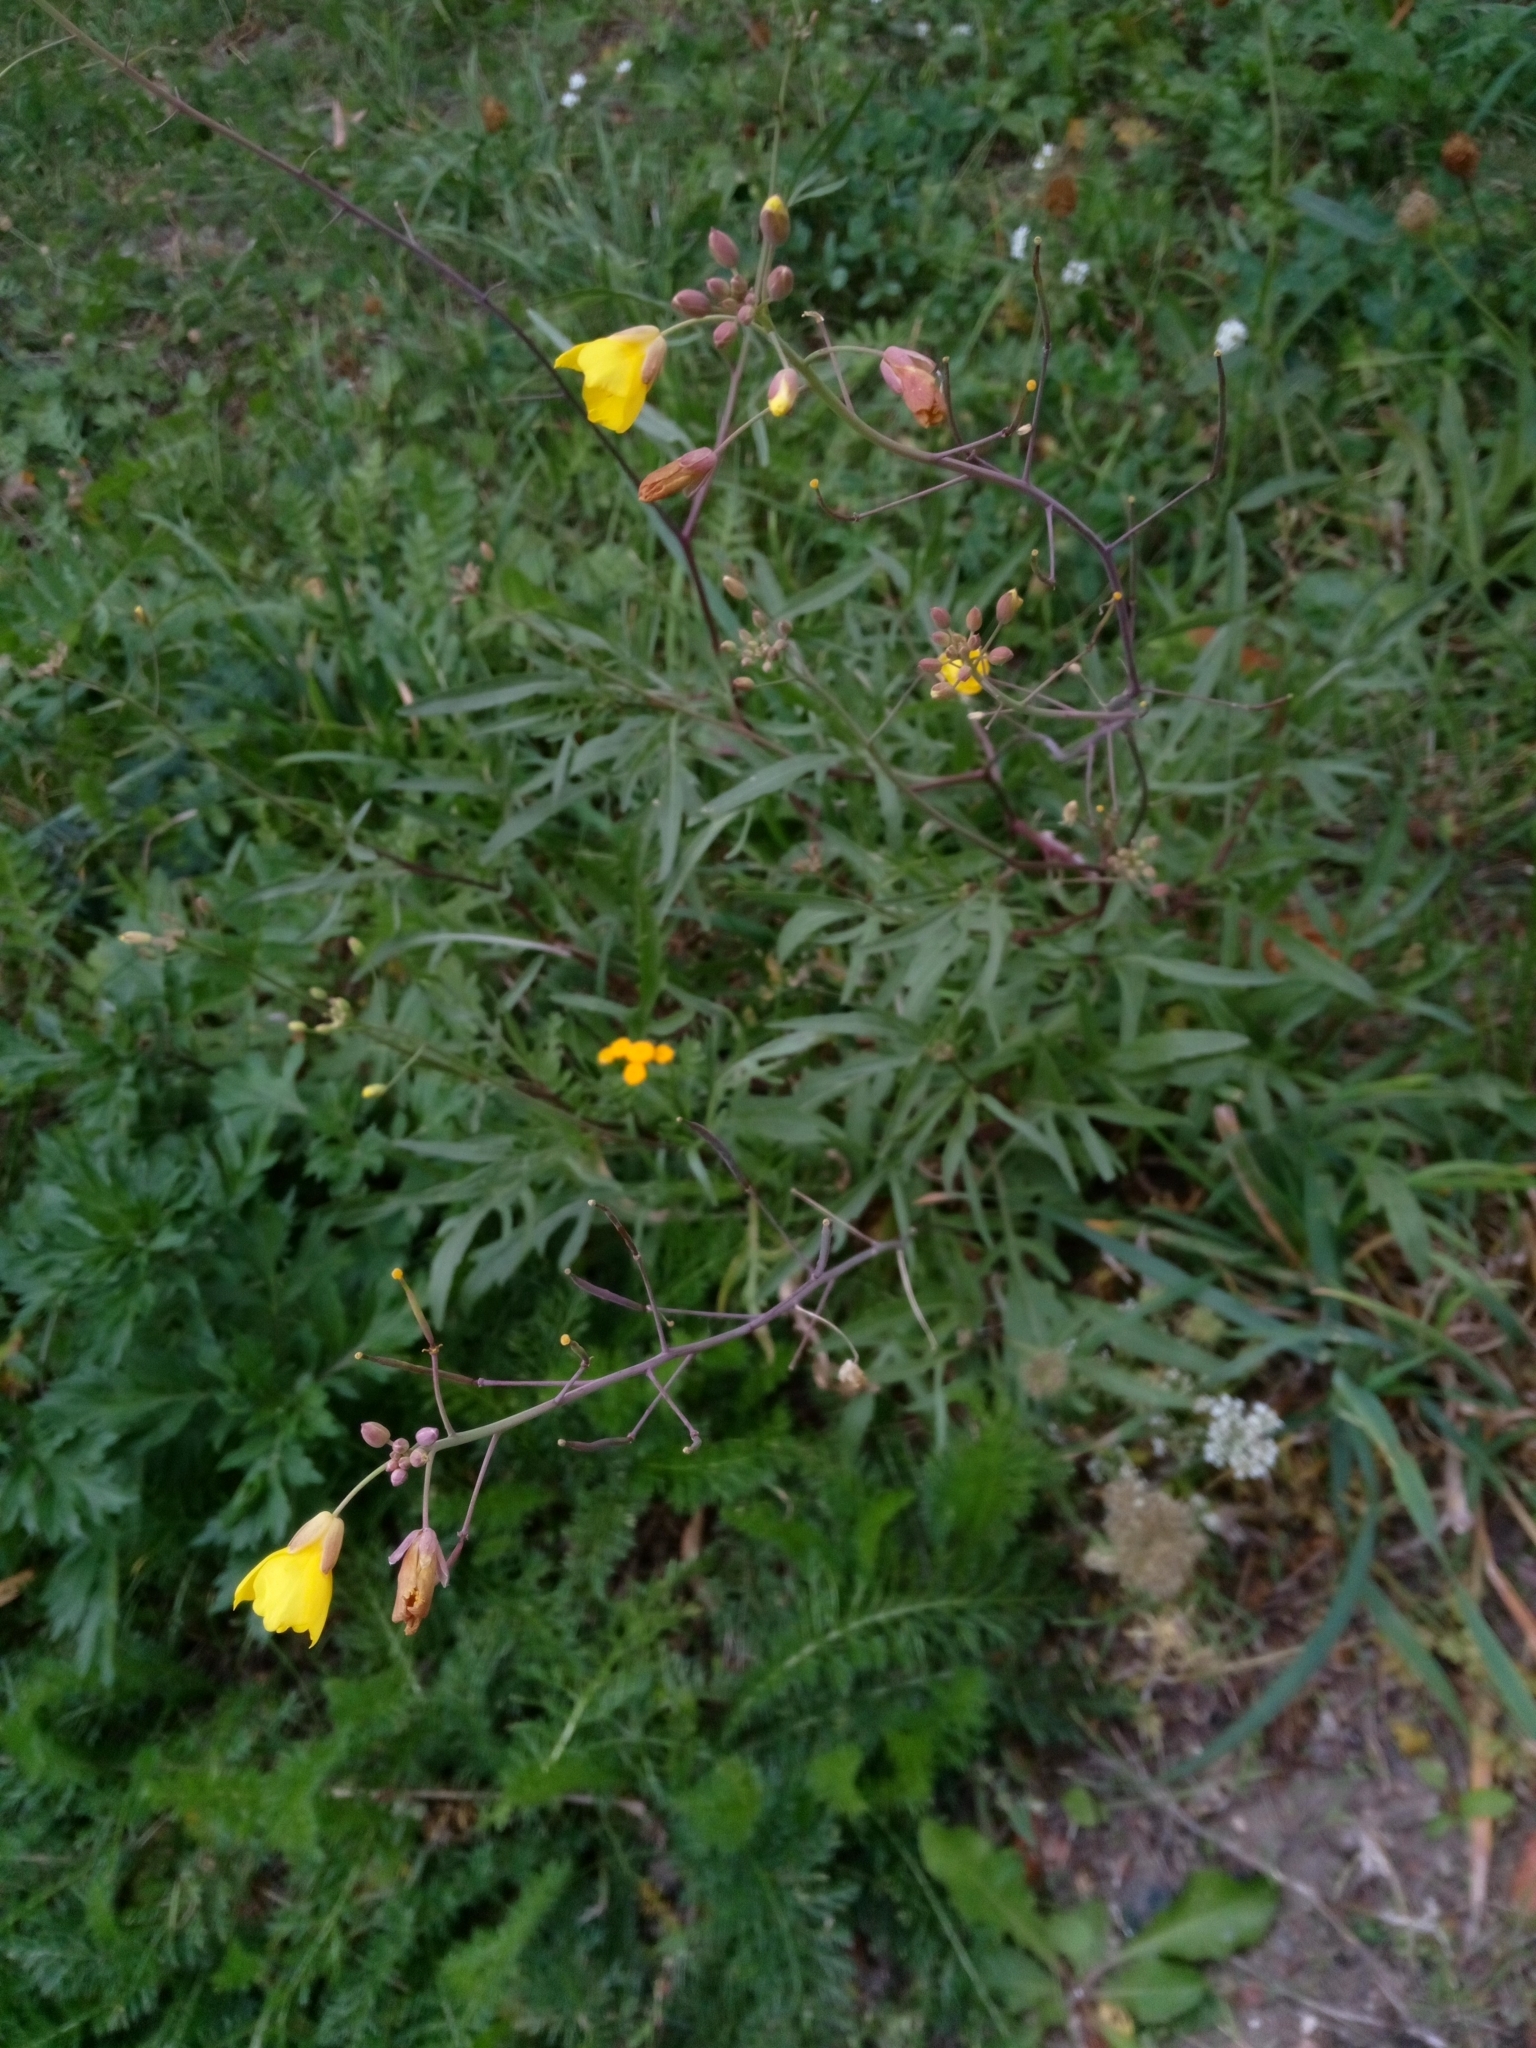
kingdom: Plantae
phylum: Tracheophyta
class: Magnoliopsida
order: Brassicales
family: Brassicaceae
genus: Diplotaxis
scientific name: Diplotaxis tenuifolia
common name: Perennial wall-rocket
